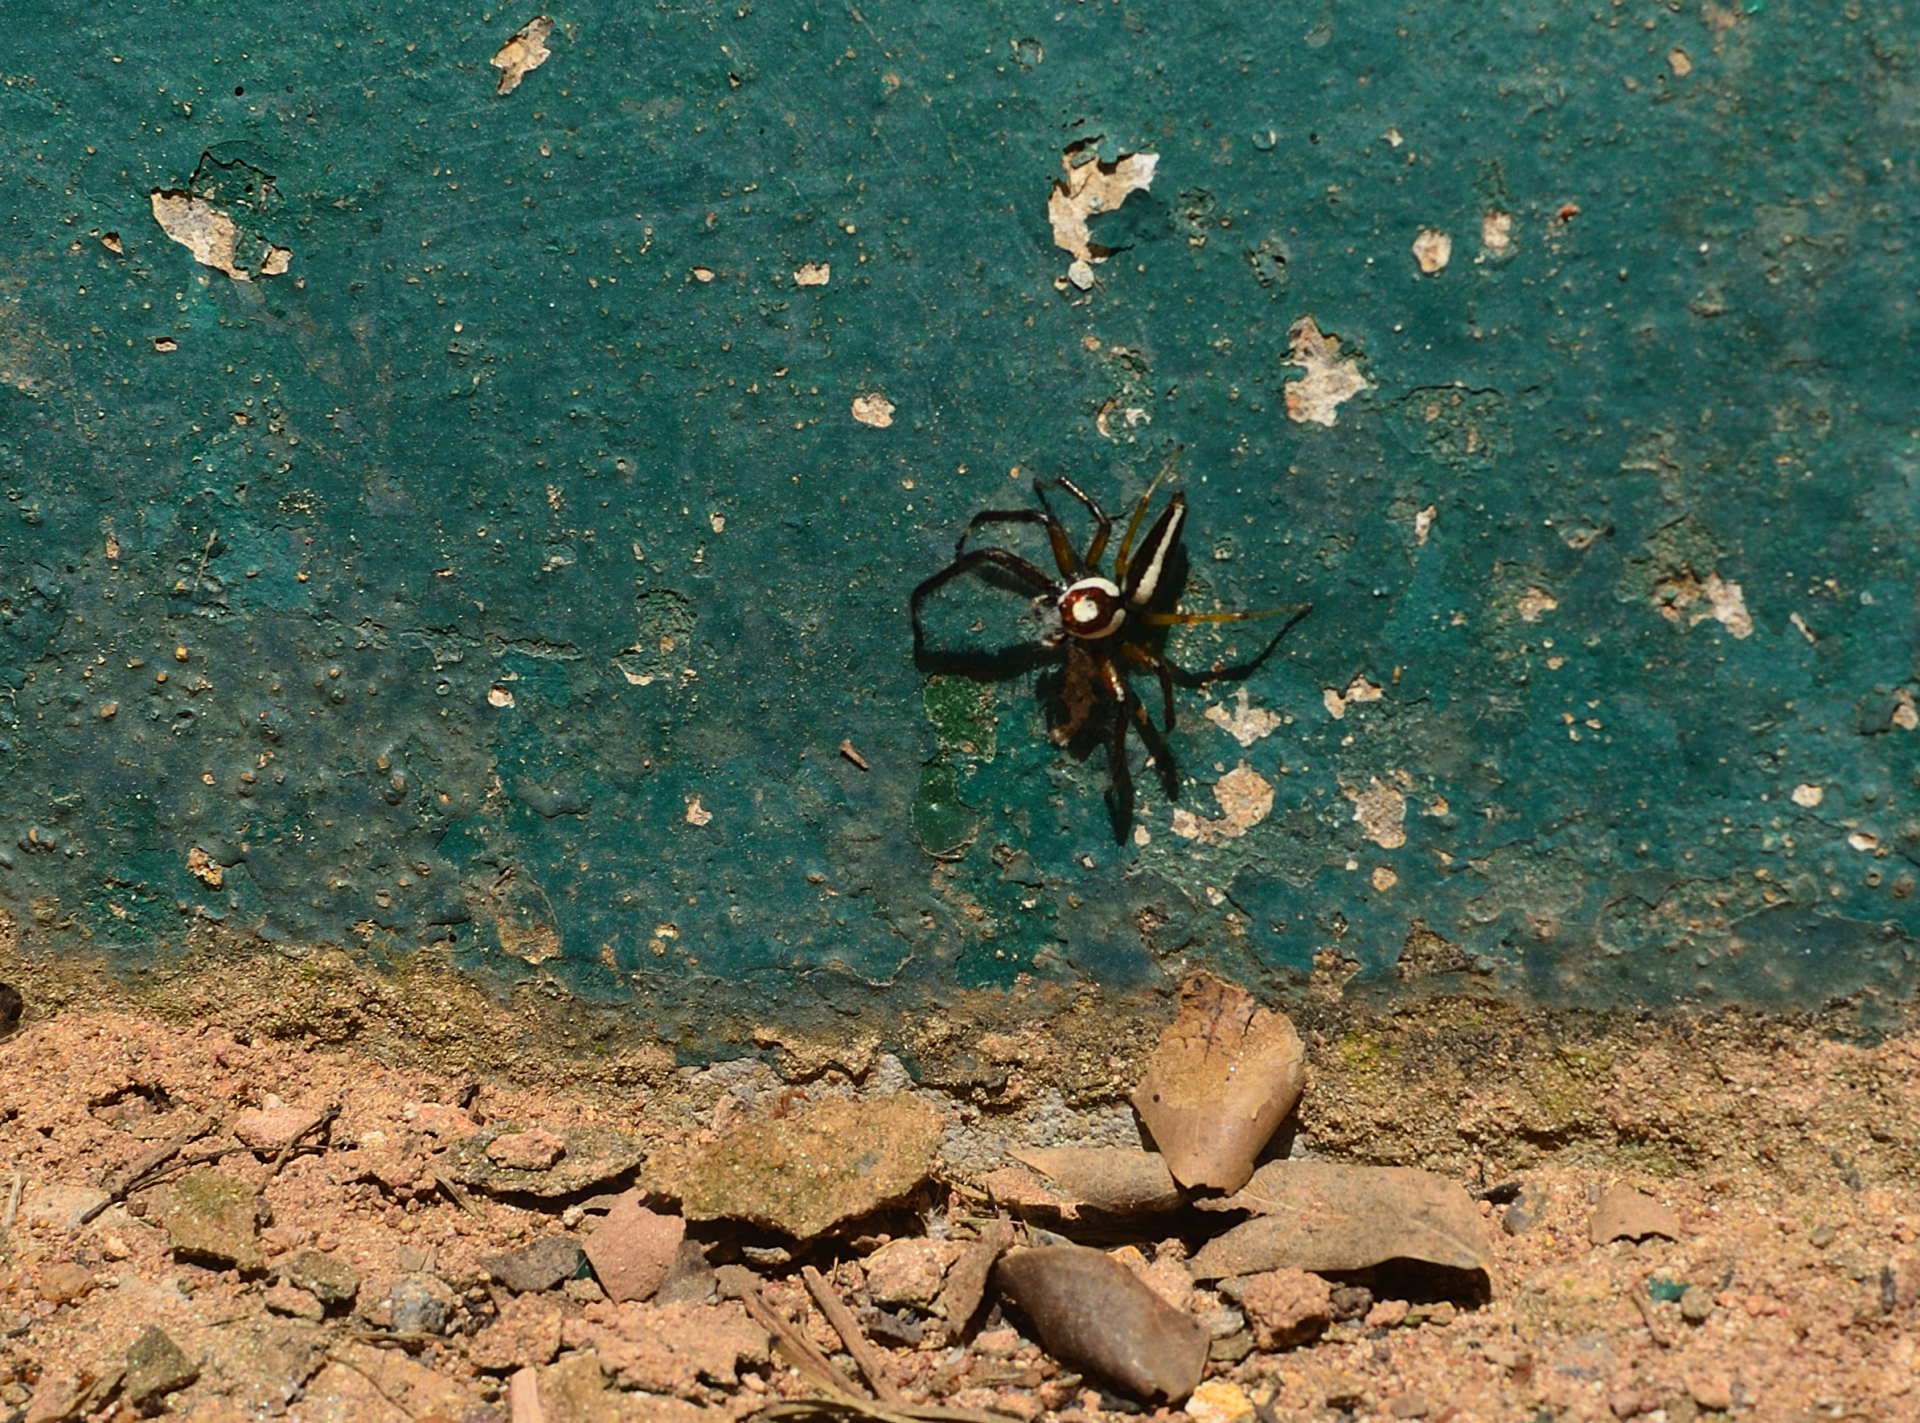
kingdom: Animalia
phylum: Arthropoda
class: Arachnida
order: Araneae
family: Salticidae
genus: Telamonia
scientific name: Telamonia dimidiata
